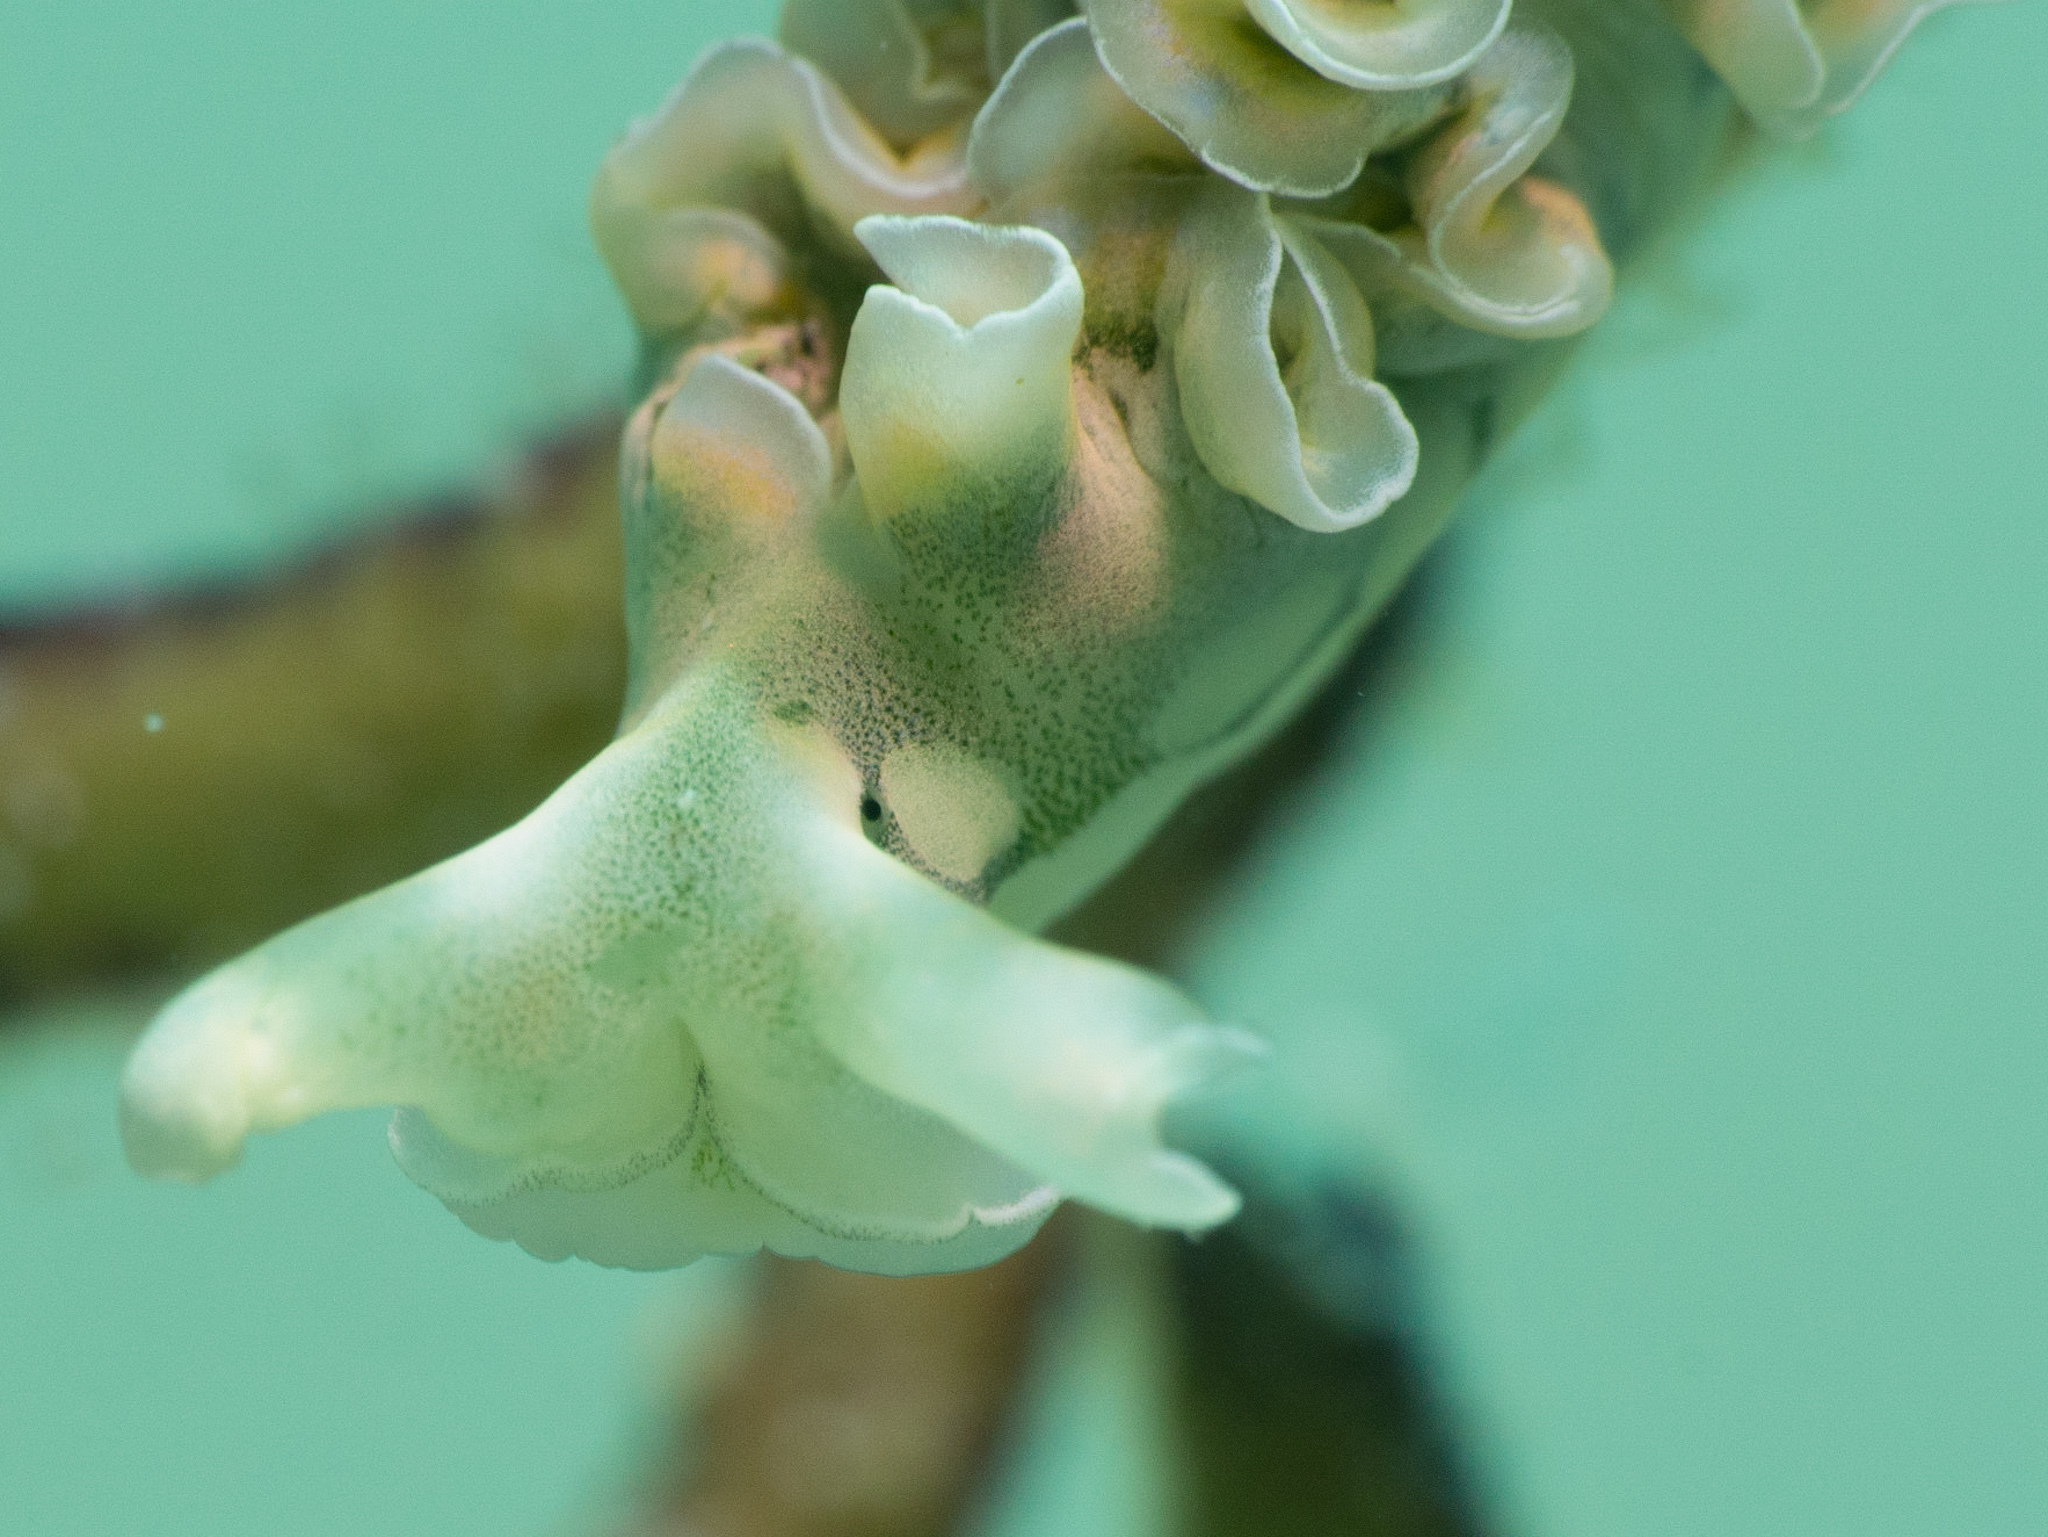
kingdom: Animalia
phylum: Mollusca
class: Gastropoda
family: Plakobranchidae
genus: Elysia
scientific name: Elysia crispata
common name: Lettuce slug
